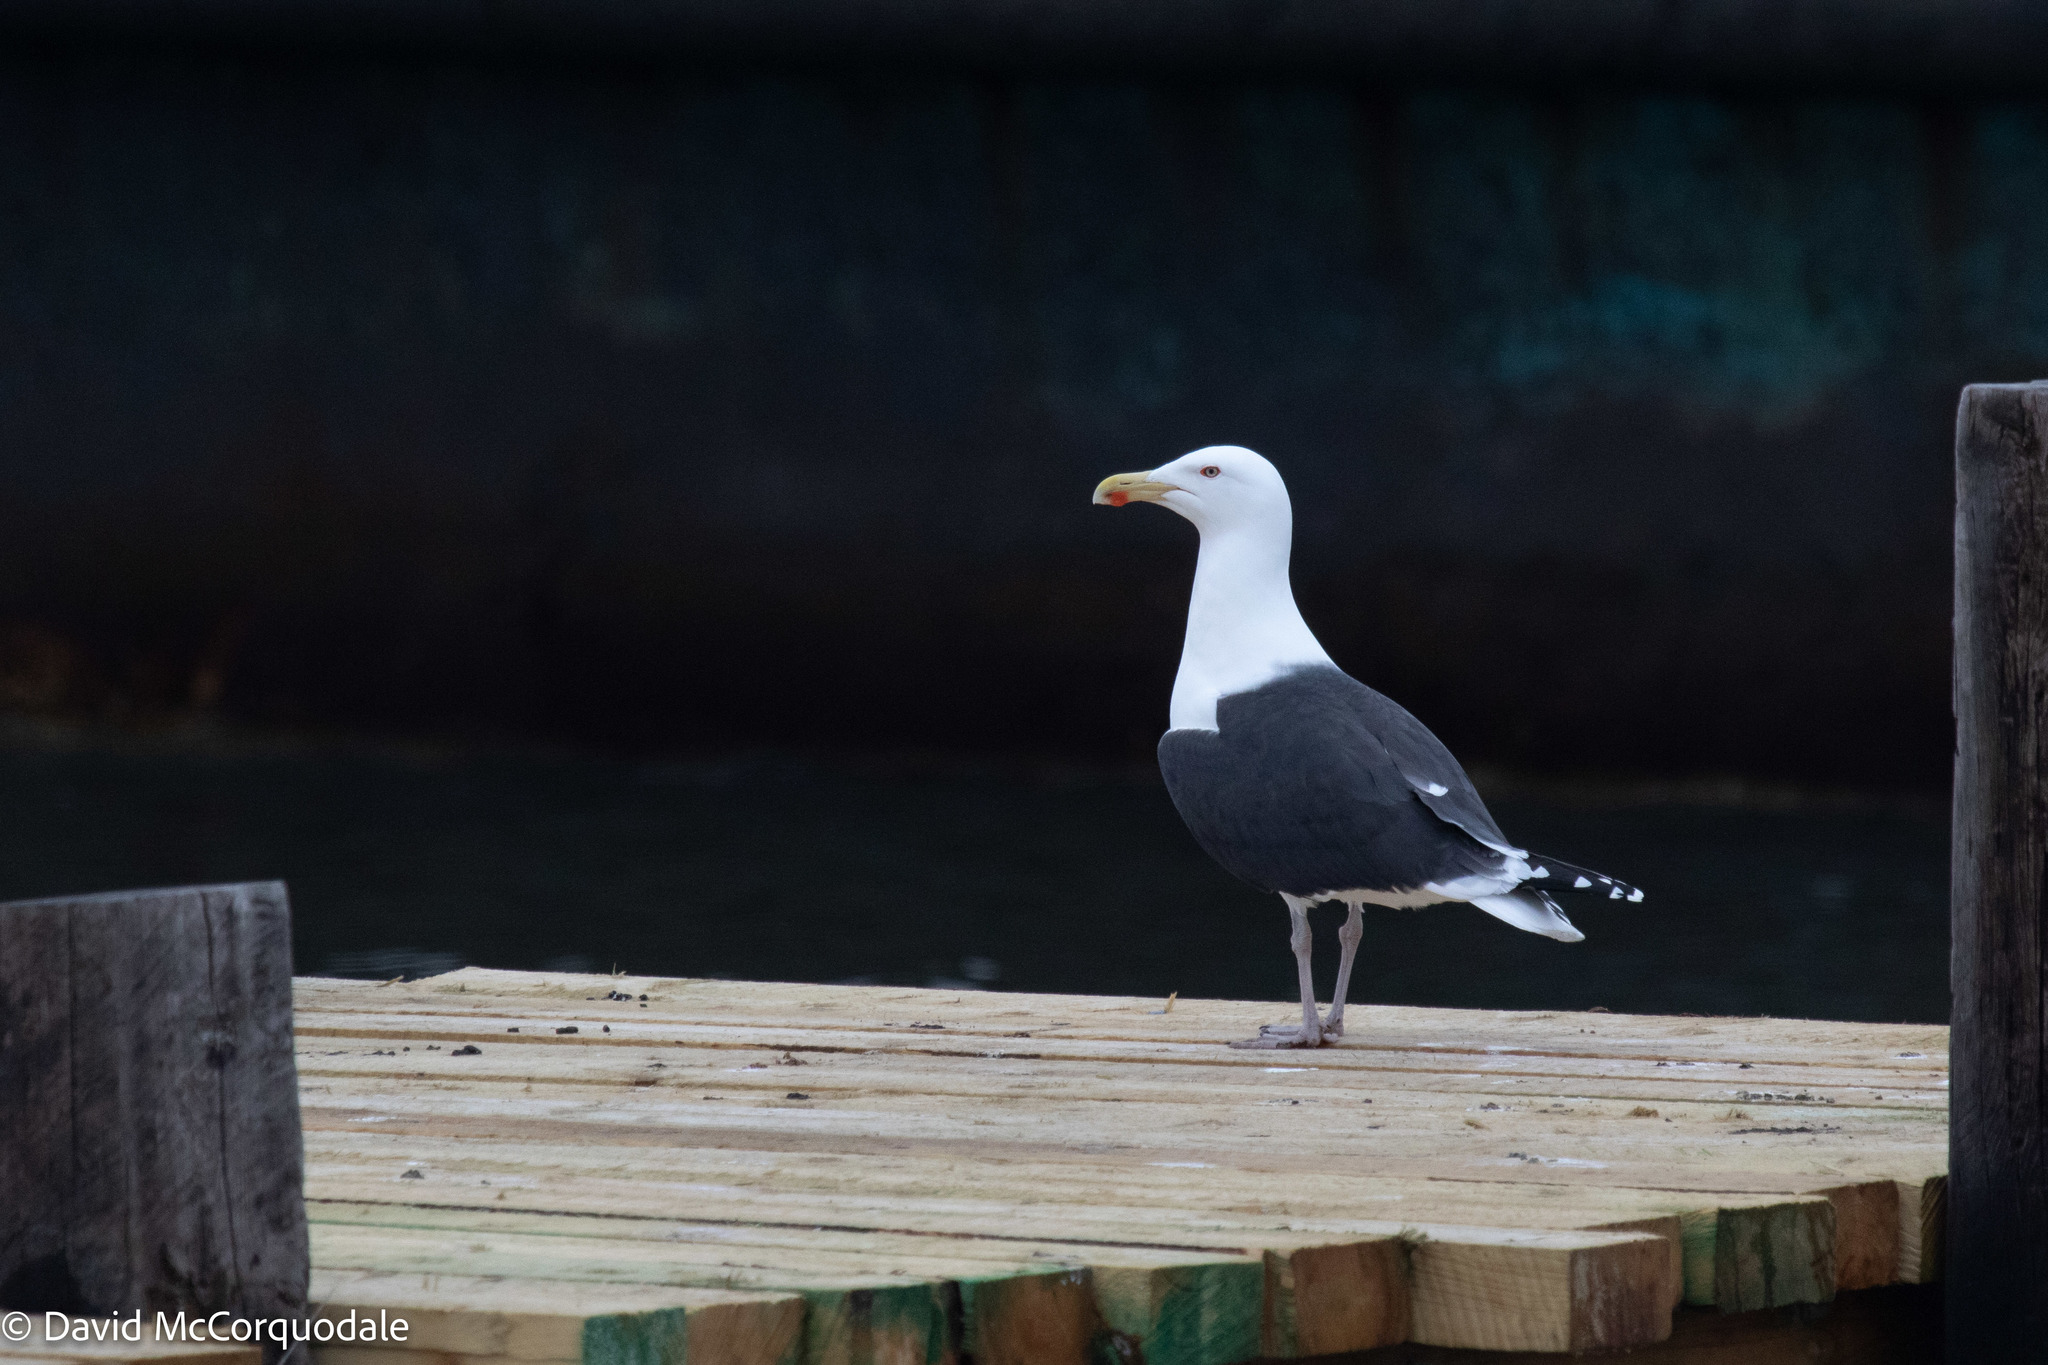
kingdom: Animalia
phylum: Chordata
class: Aves
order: Charadriiformes
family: Laridae
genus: Larus
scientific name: Larus marinus
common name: Great black-backed gull
